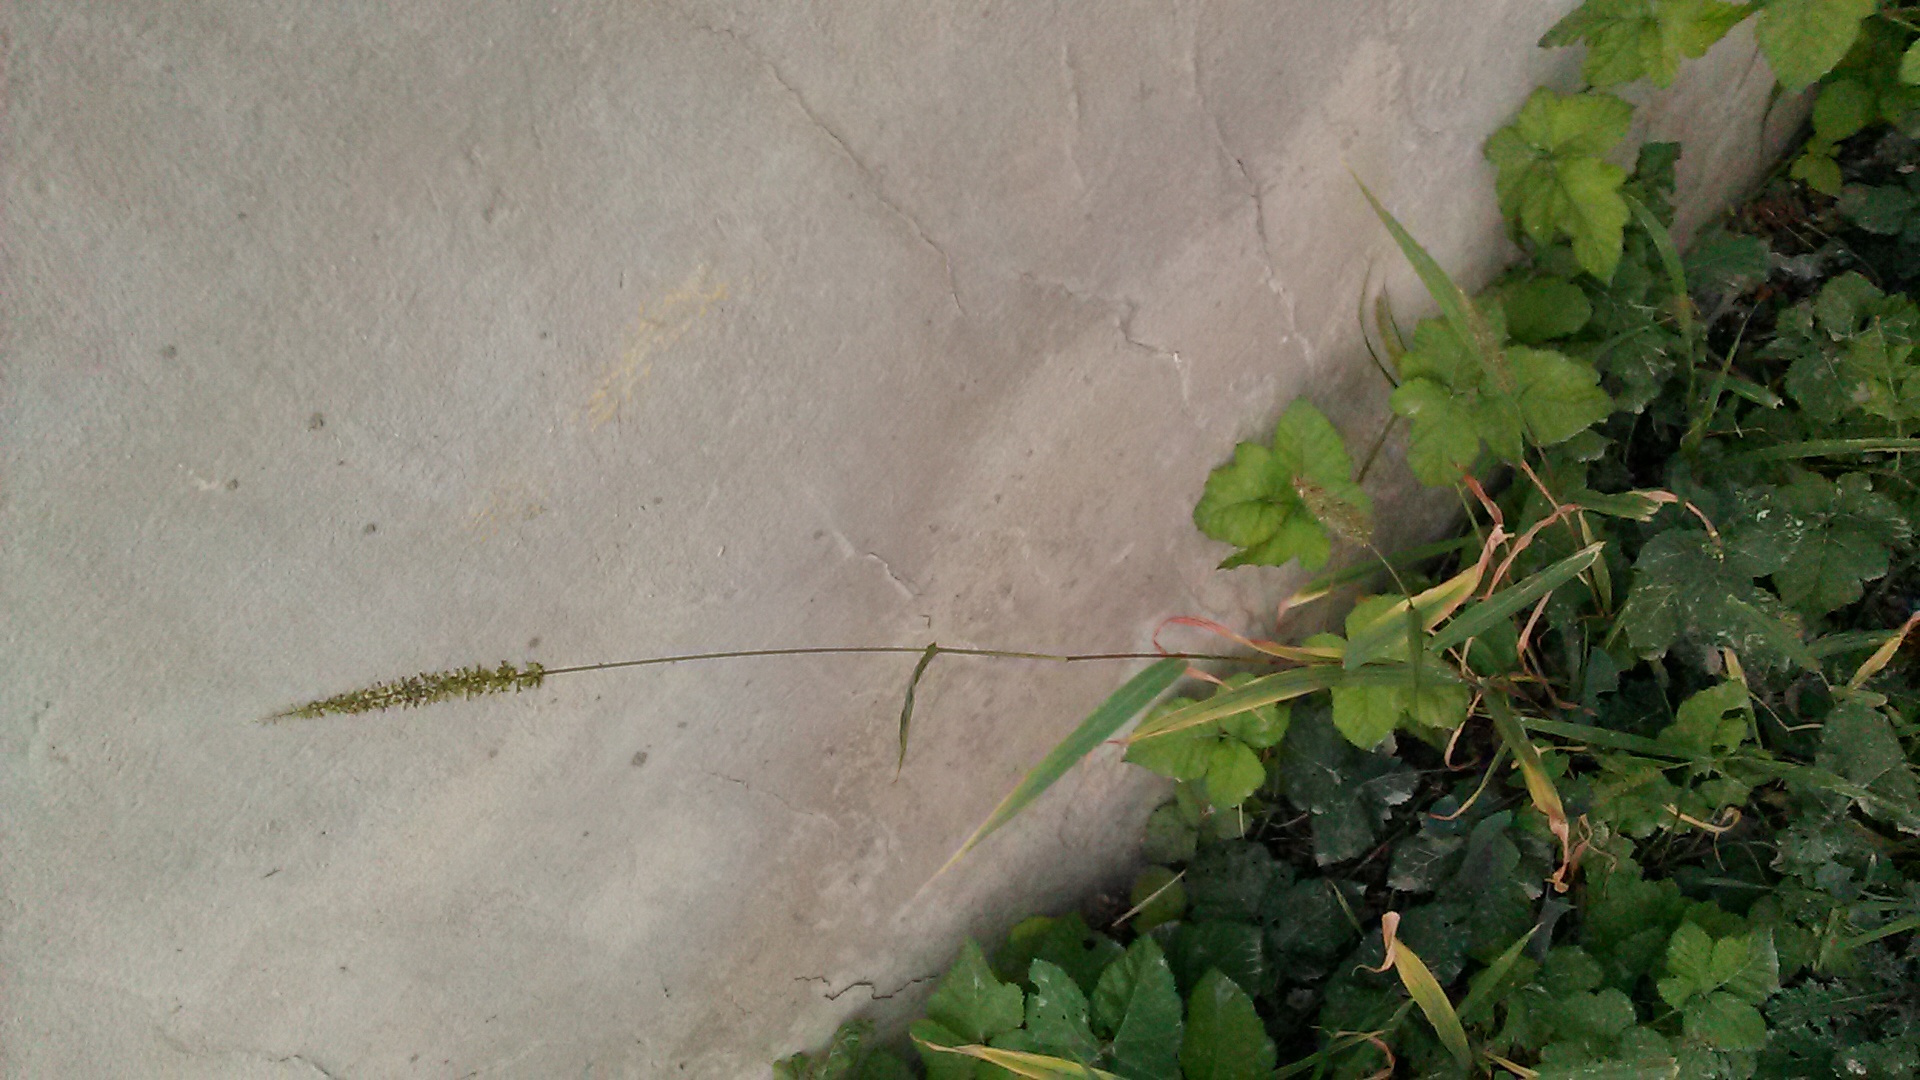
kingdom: Plantae
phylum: Tracheophyta
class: Liliopsida
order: Poales
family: Poaceae
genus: Setaria
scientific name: Setaria verticillata
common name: Hooked bristlegrass
